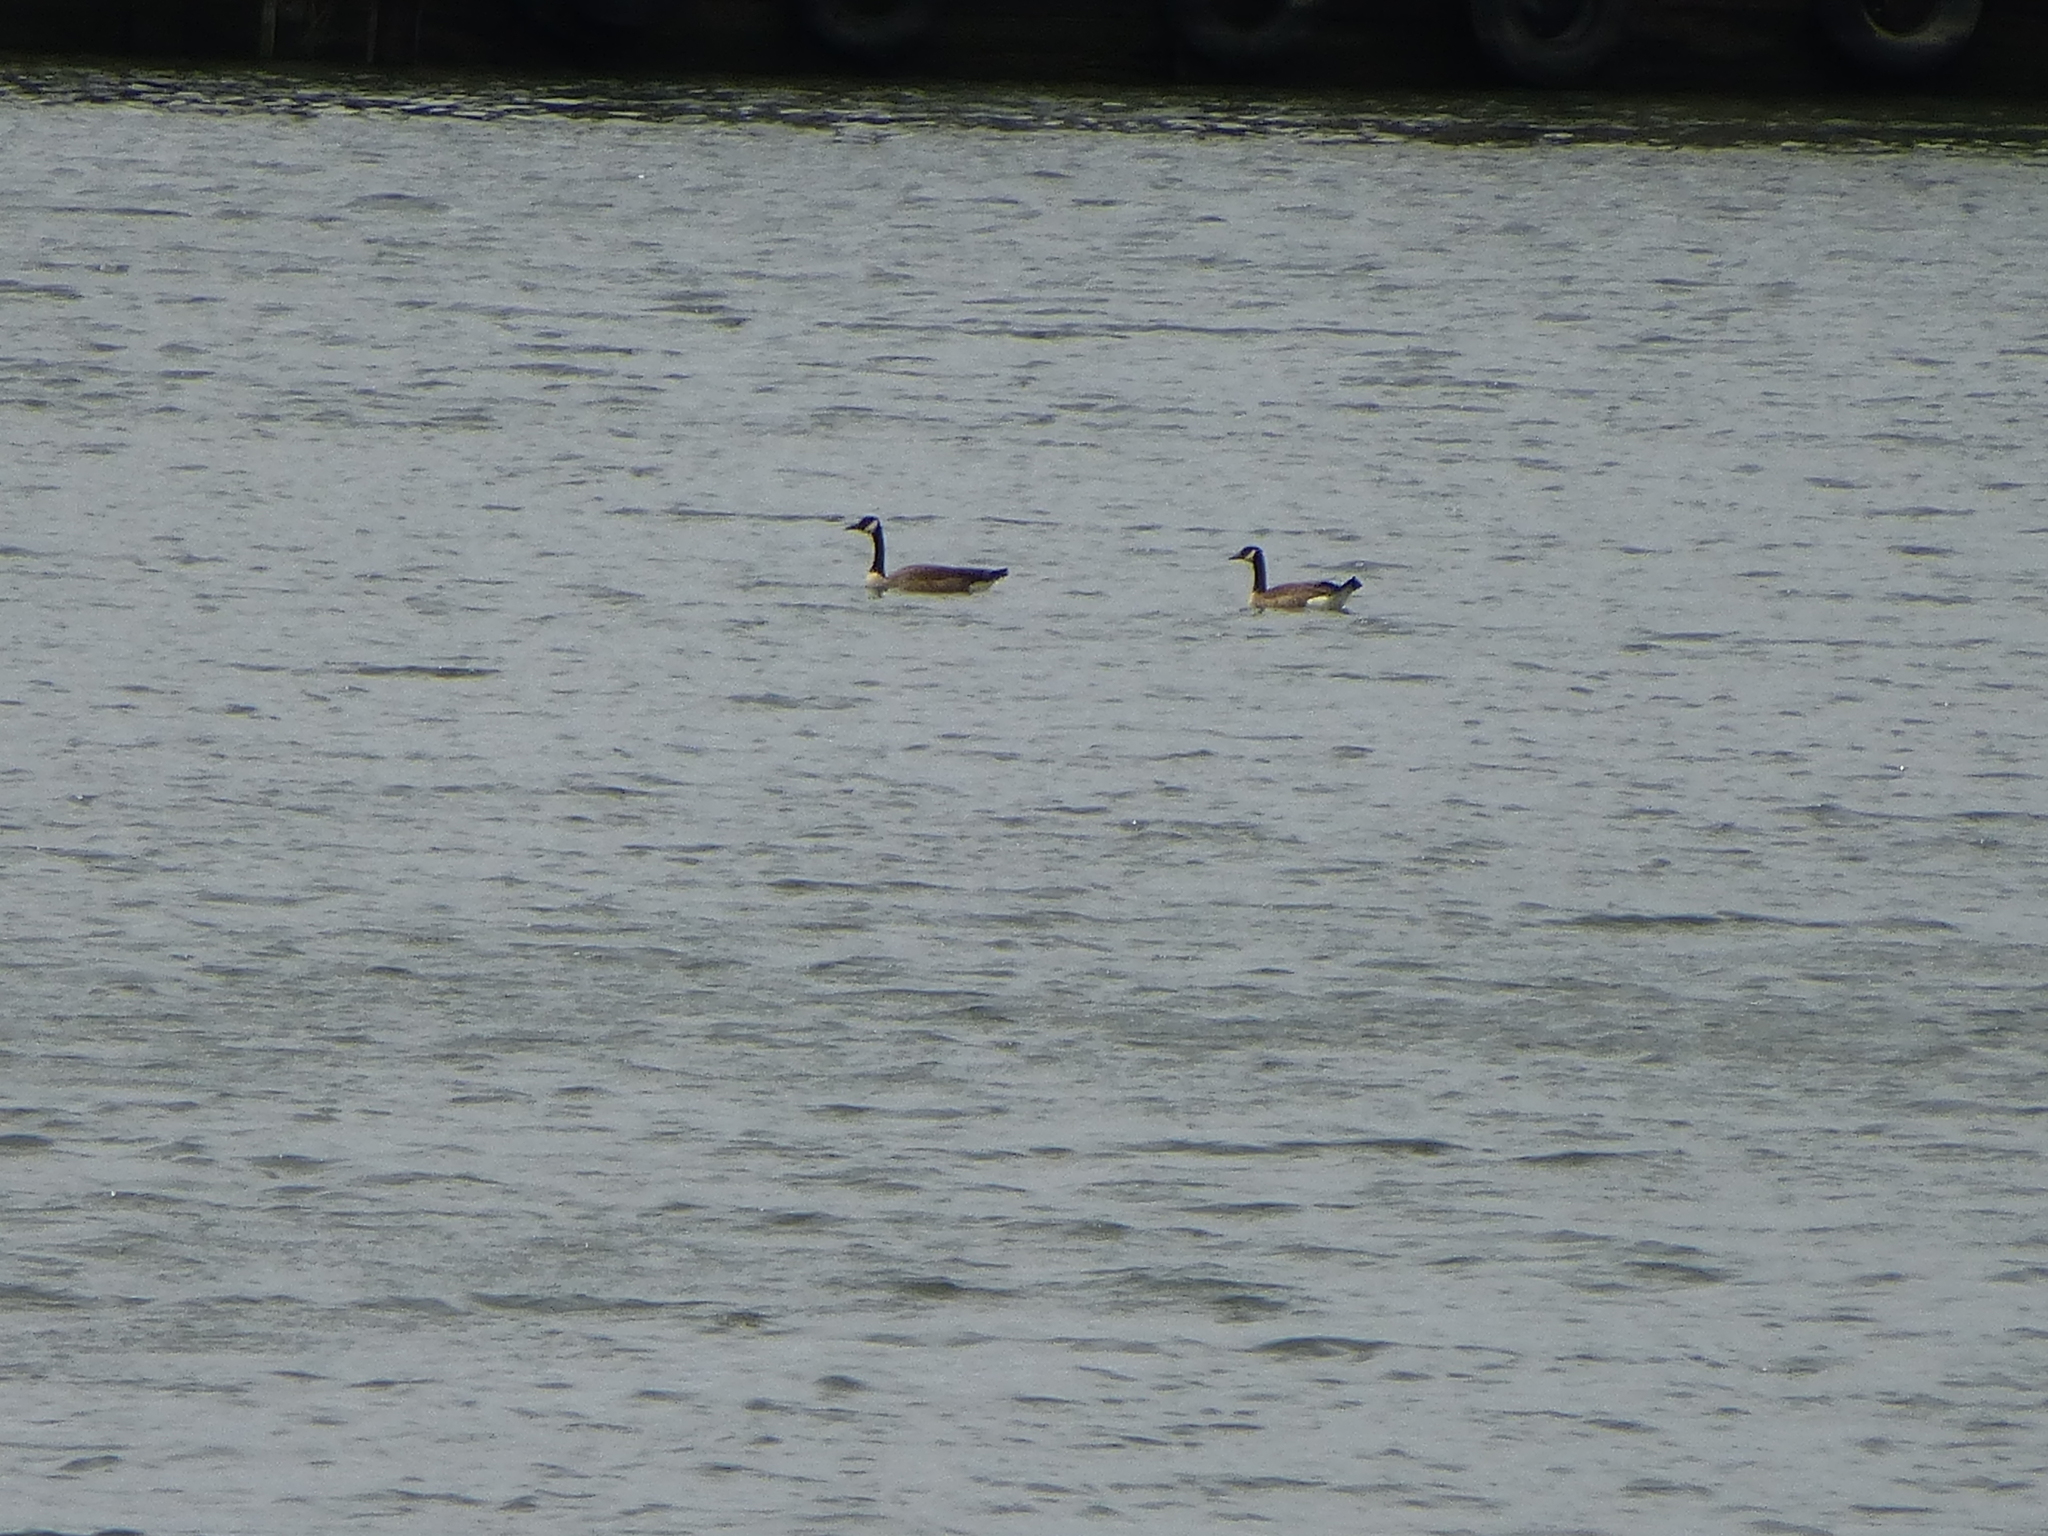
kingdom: Animalia
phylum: Chordata
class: Aves
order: Anseriformes
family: Anatidae
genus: Branta
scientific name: Branta canadensis
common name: Canada goose
